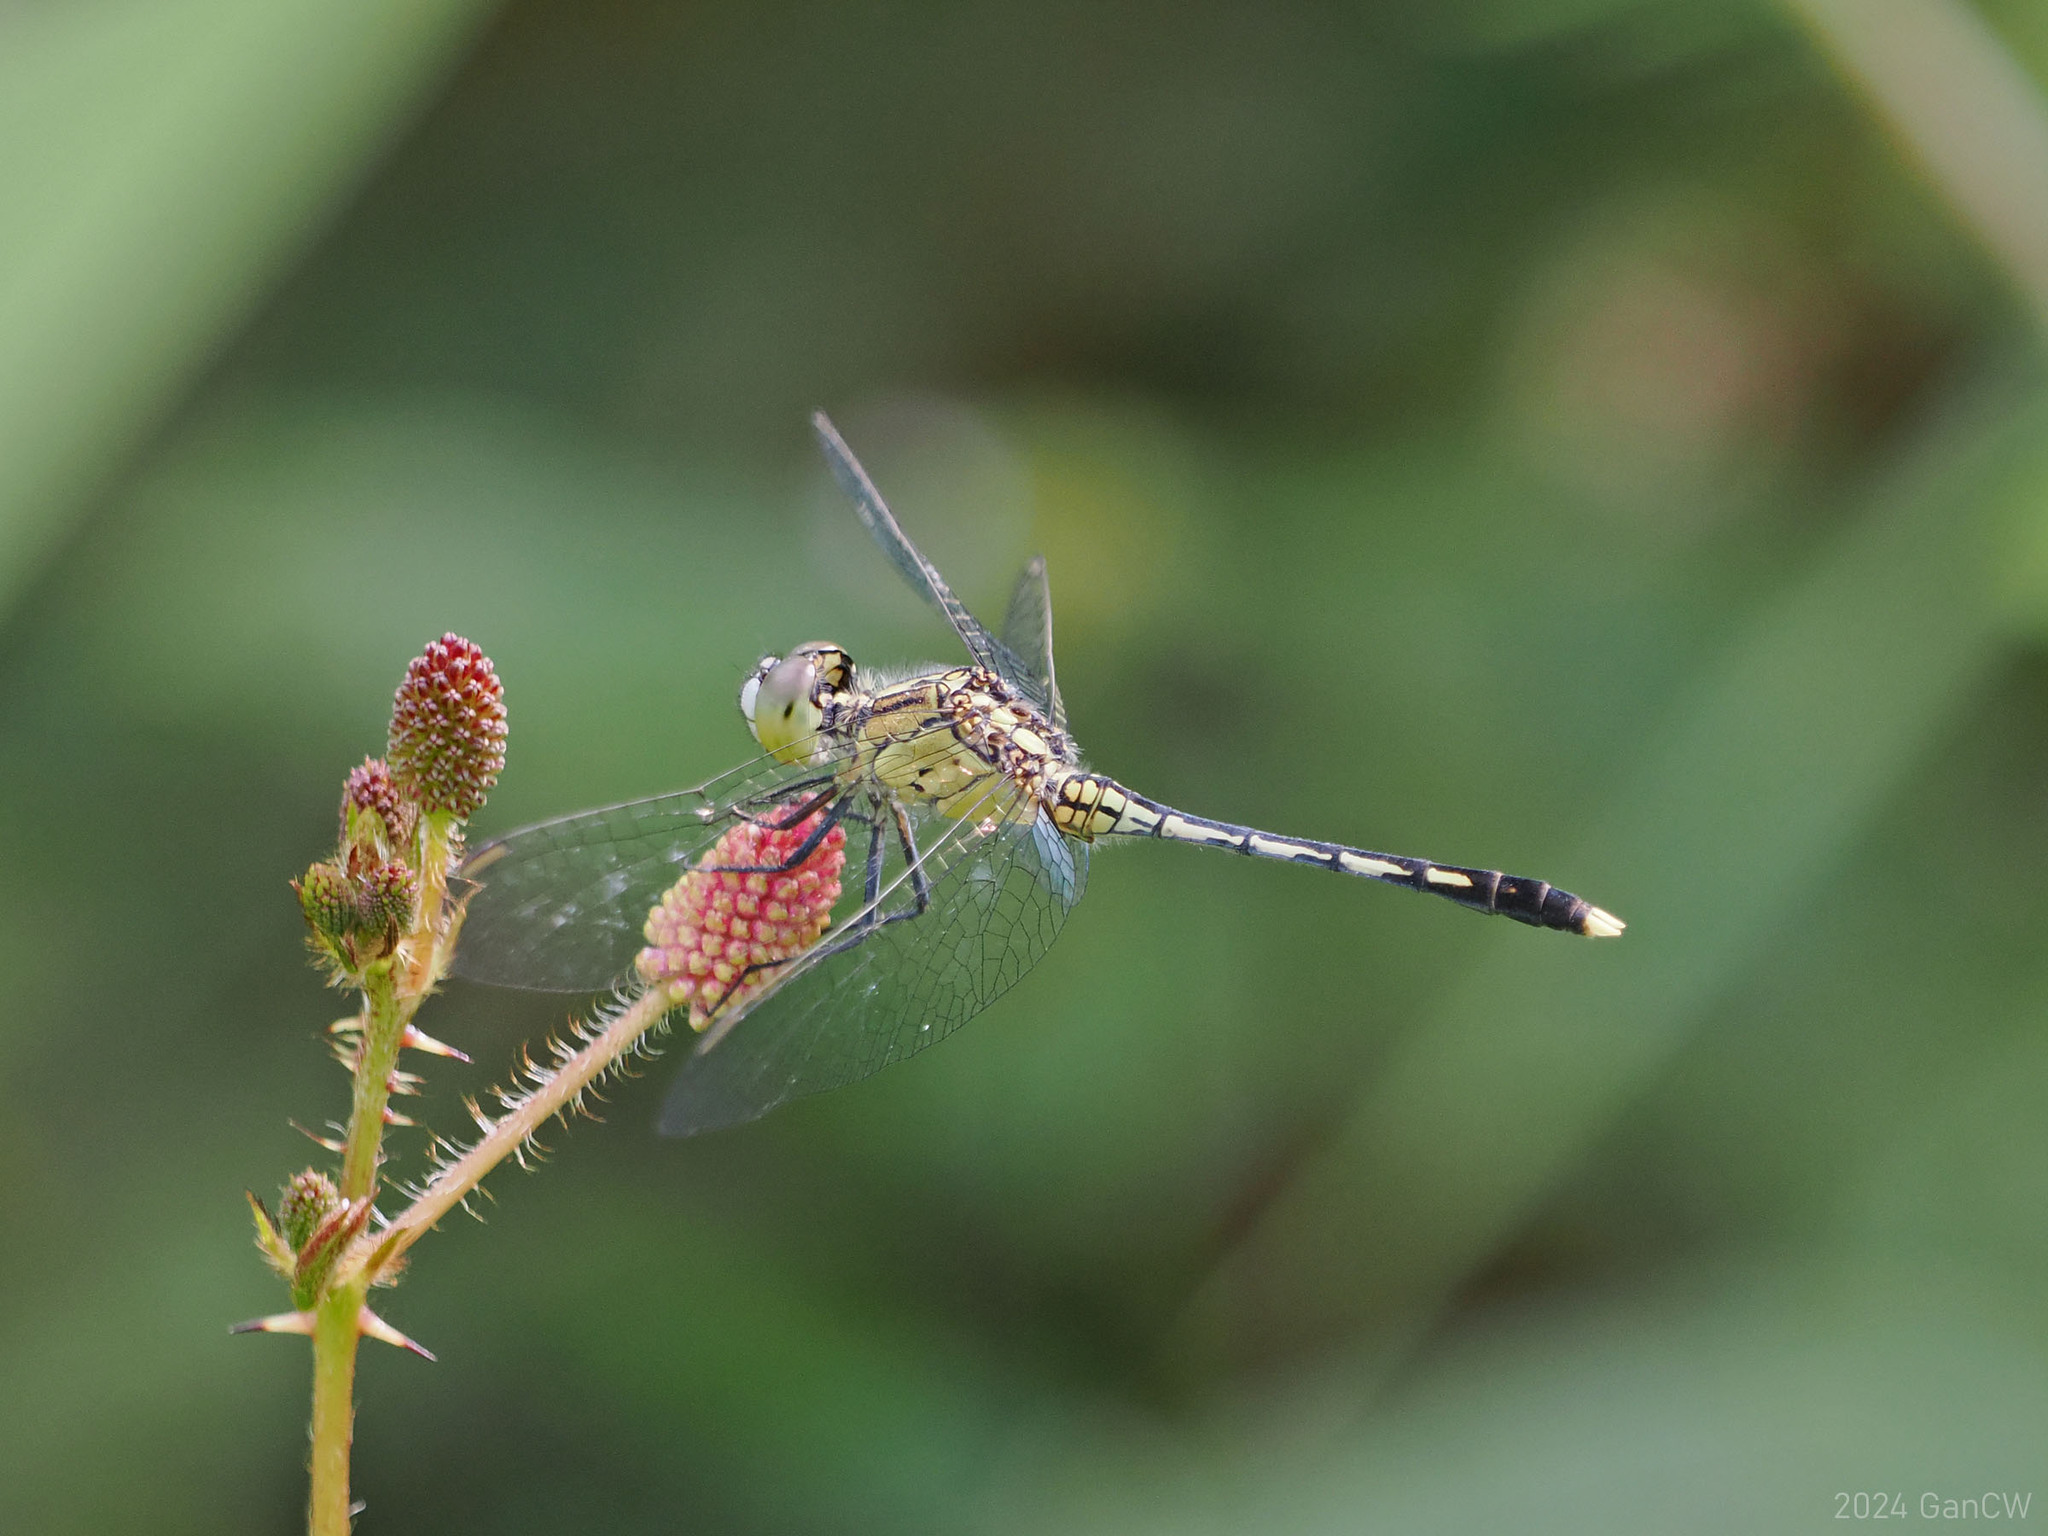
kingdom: Animalia
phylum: Arthropoda
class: Insecta
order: Odonata
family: Libellulidae
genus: Diplacodes
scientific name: Diplacodes trivialis
